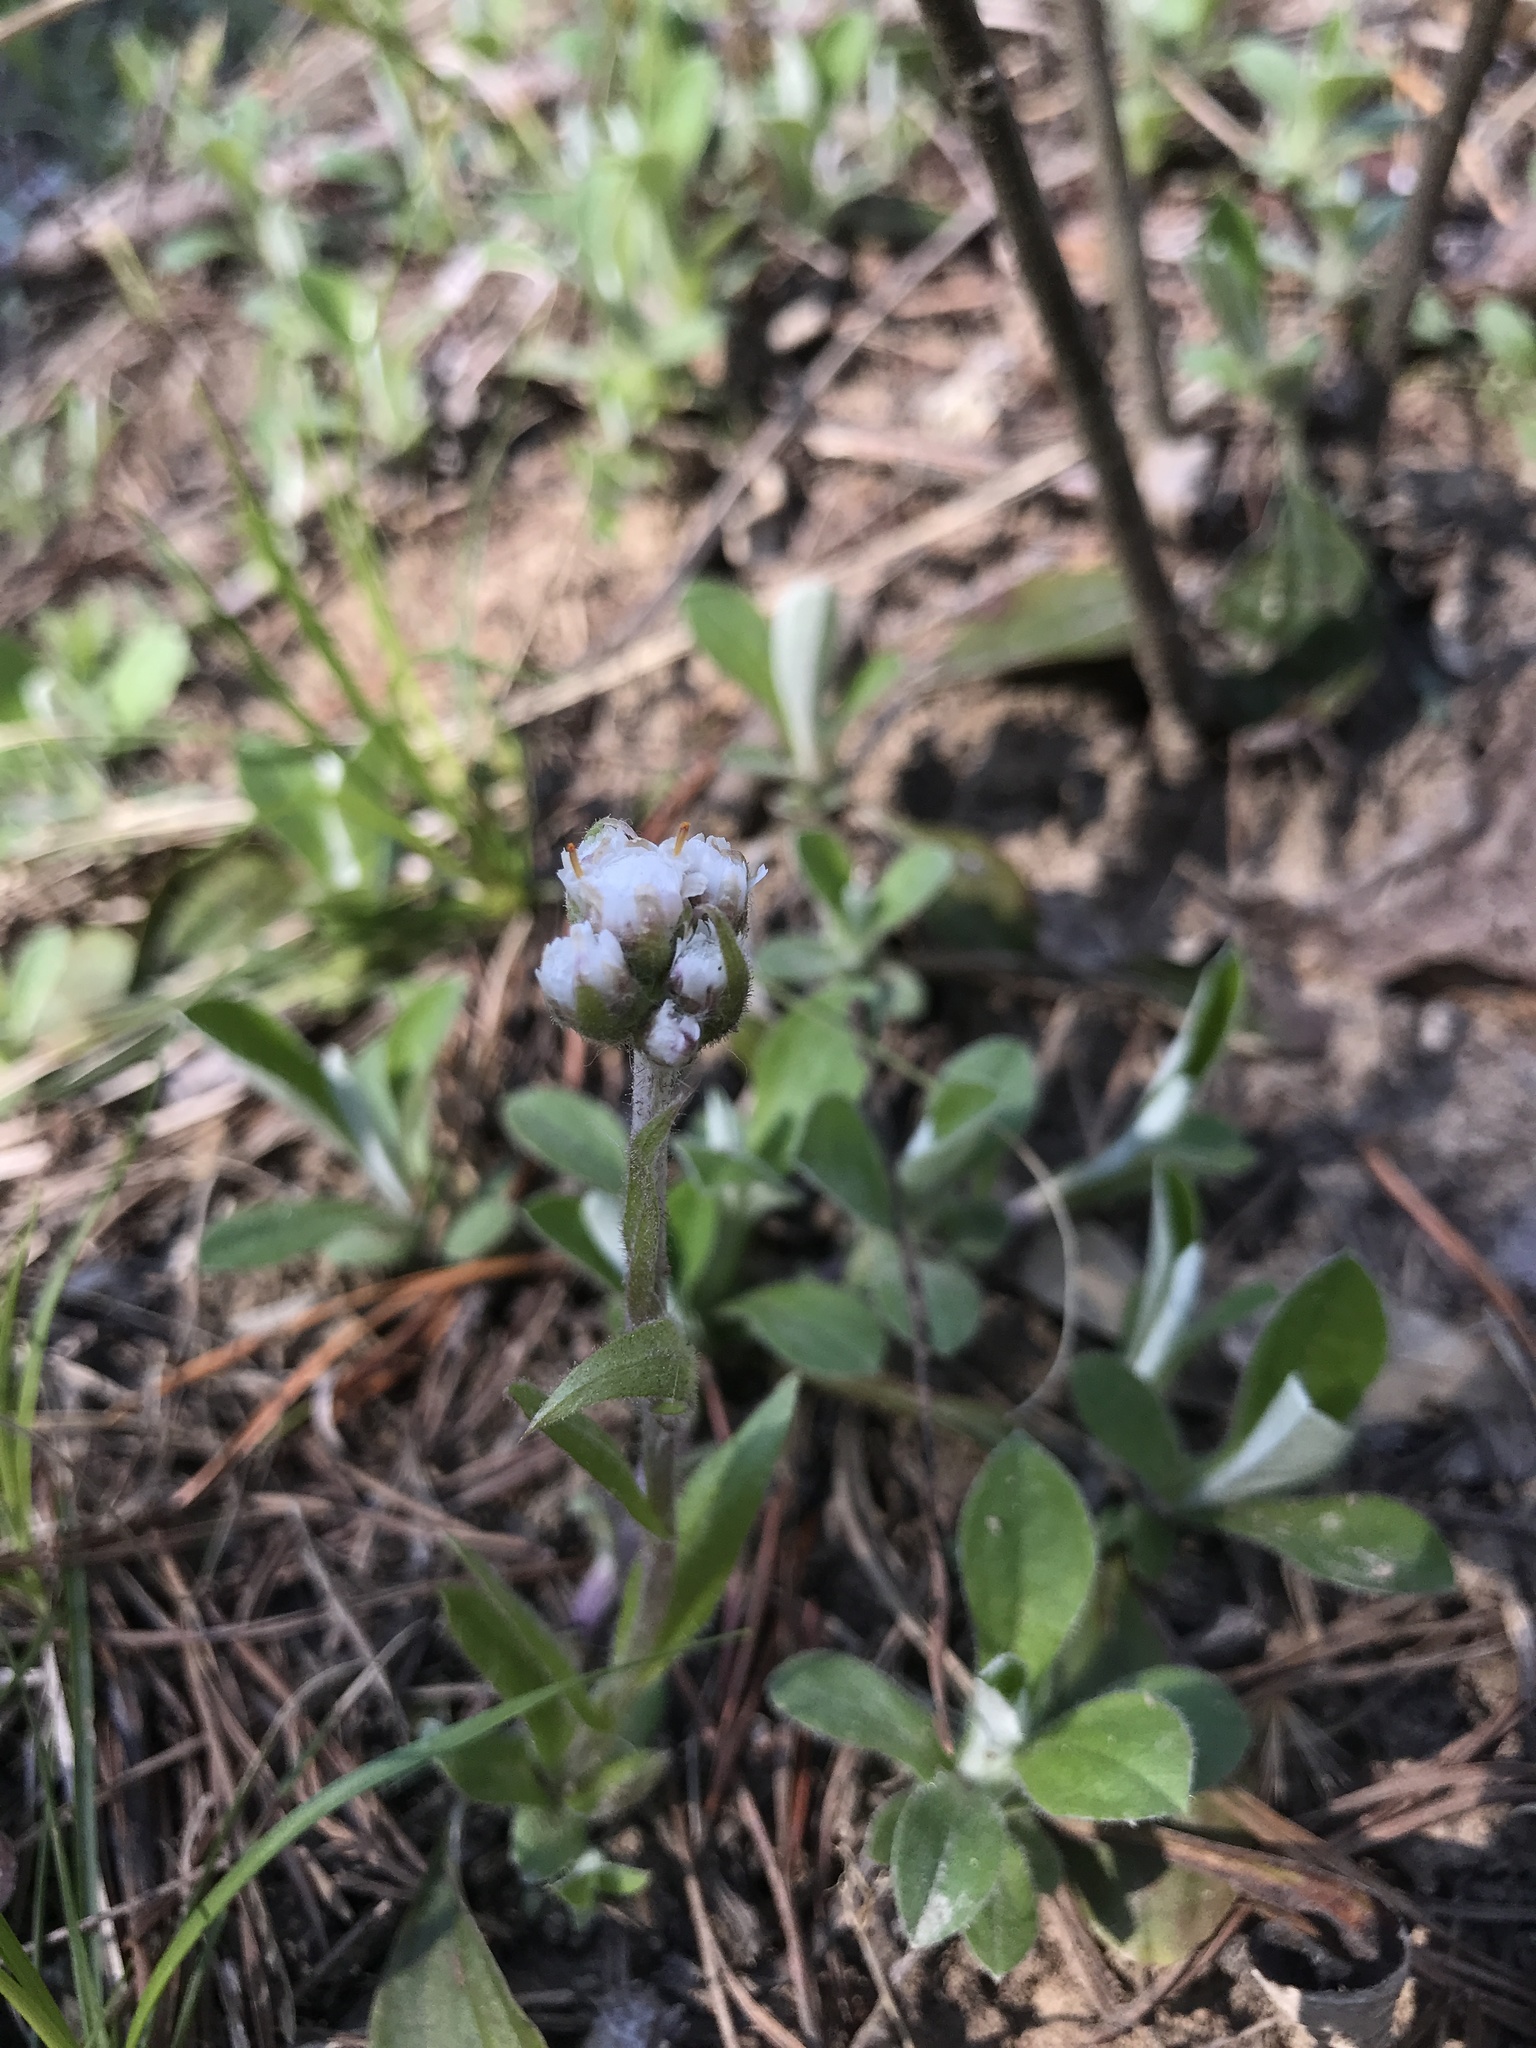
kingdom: Plantae
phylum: Tracheophyta
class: Magnoliopsida
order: Asterales
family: Asteraceae
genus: Antennaria
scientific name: Antennaria neglecta
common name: Field pussytoes
